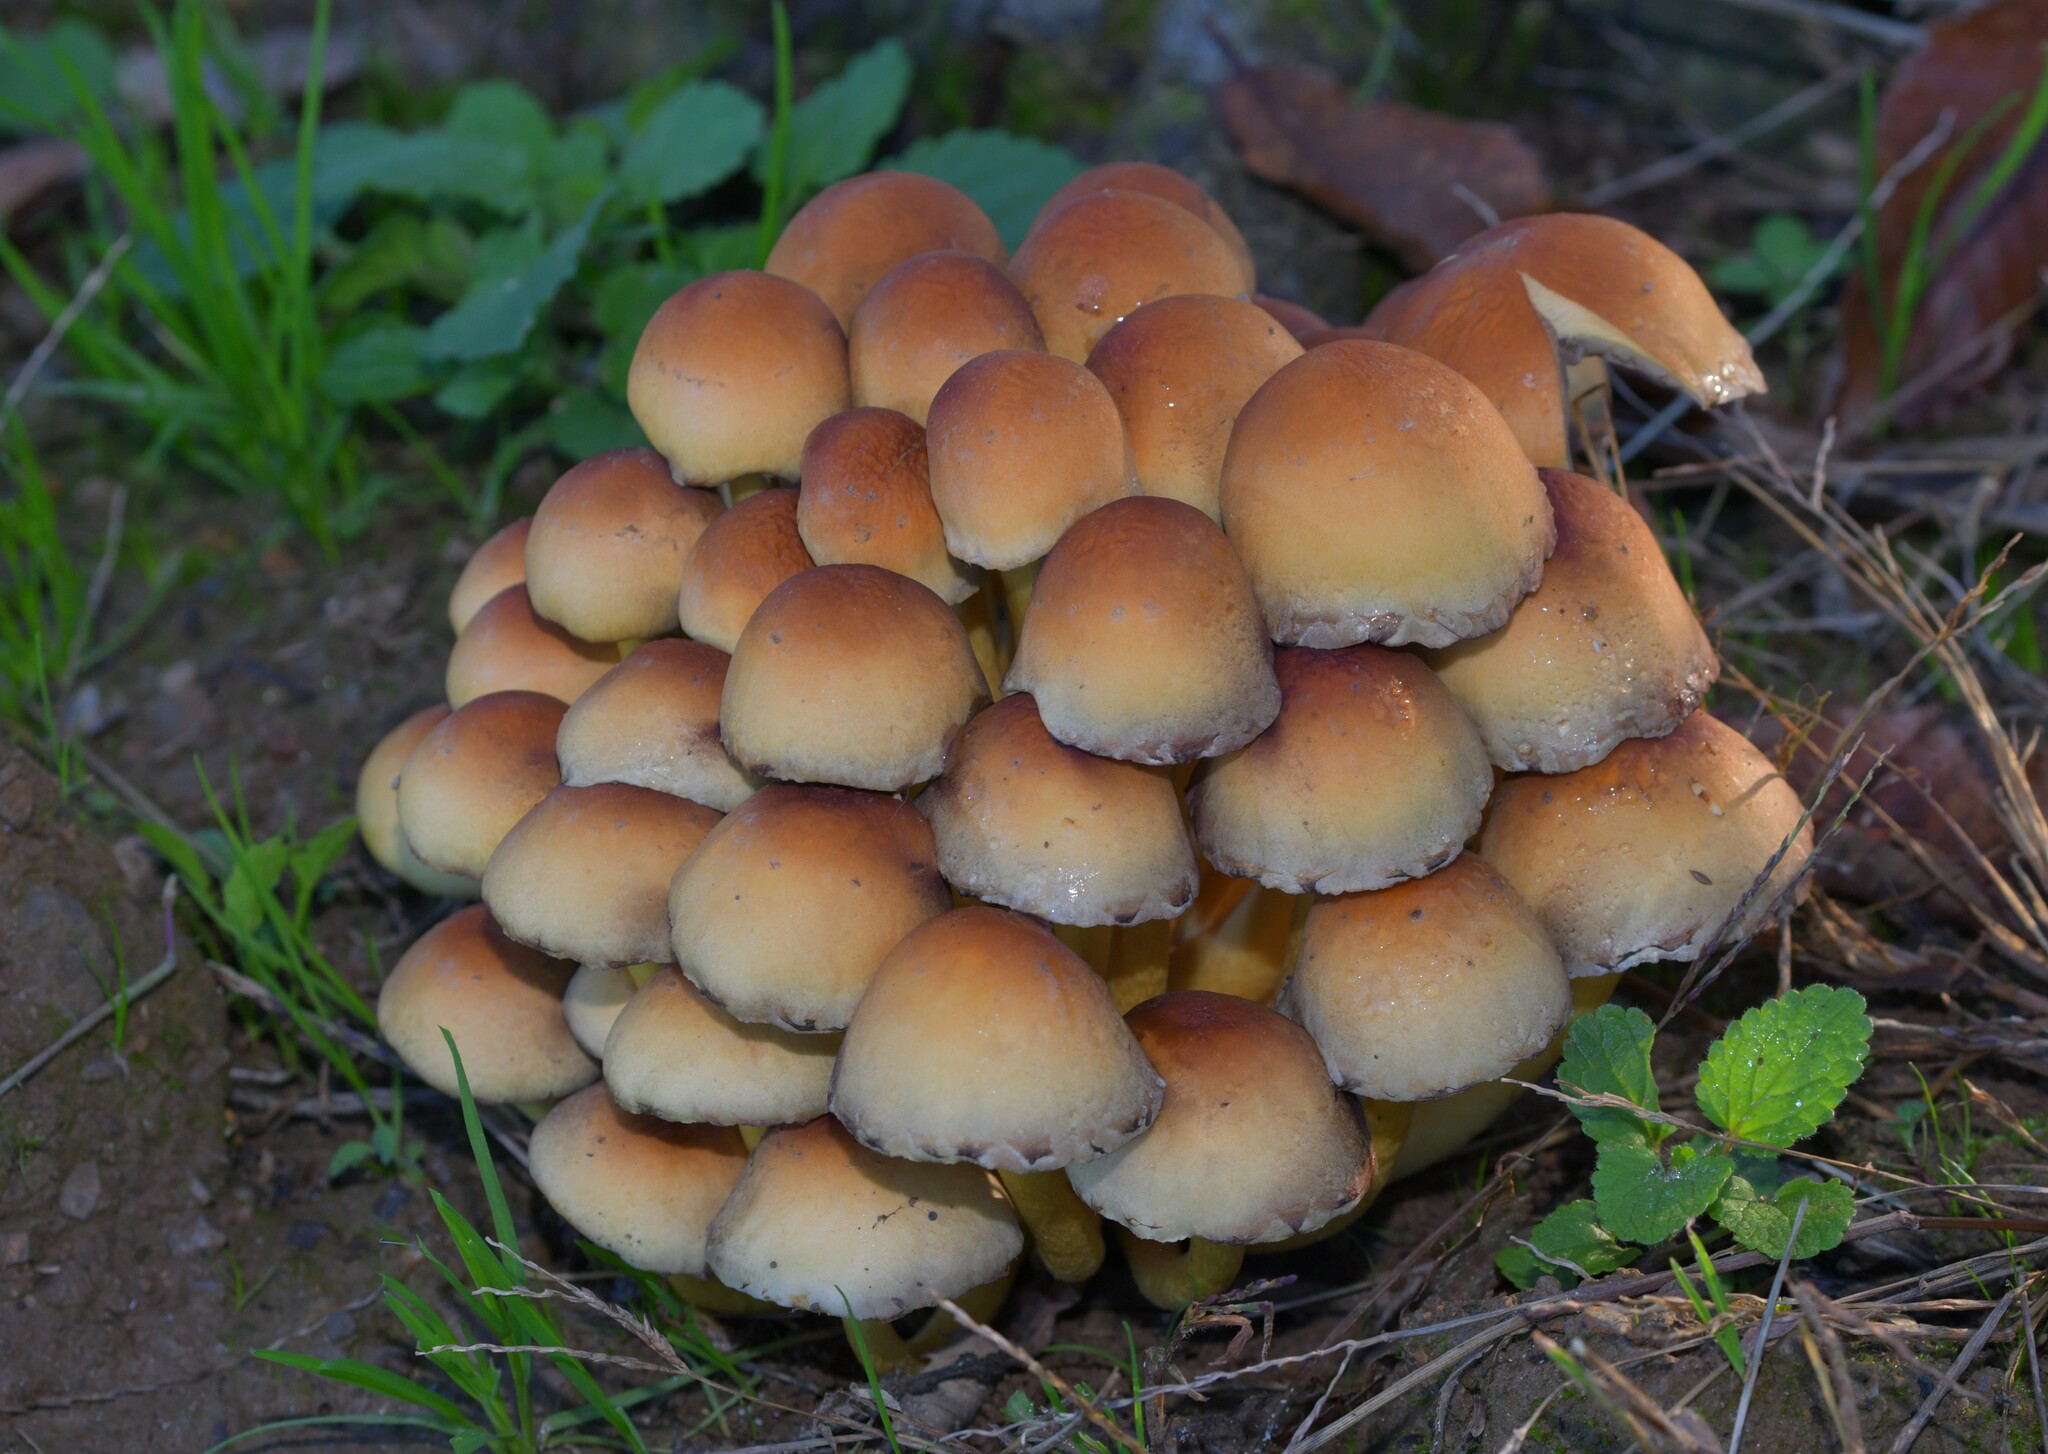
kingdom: Fungi
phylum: Basidiomycota
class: Agaricomycetes
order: Agaricales
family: Strophariaceae
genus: Hypholoma
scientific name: Hypholoma fasciculare
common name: Sulphur tuft
